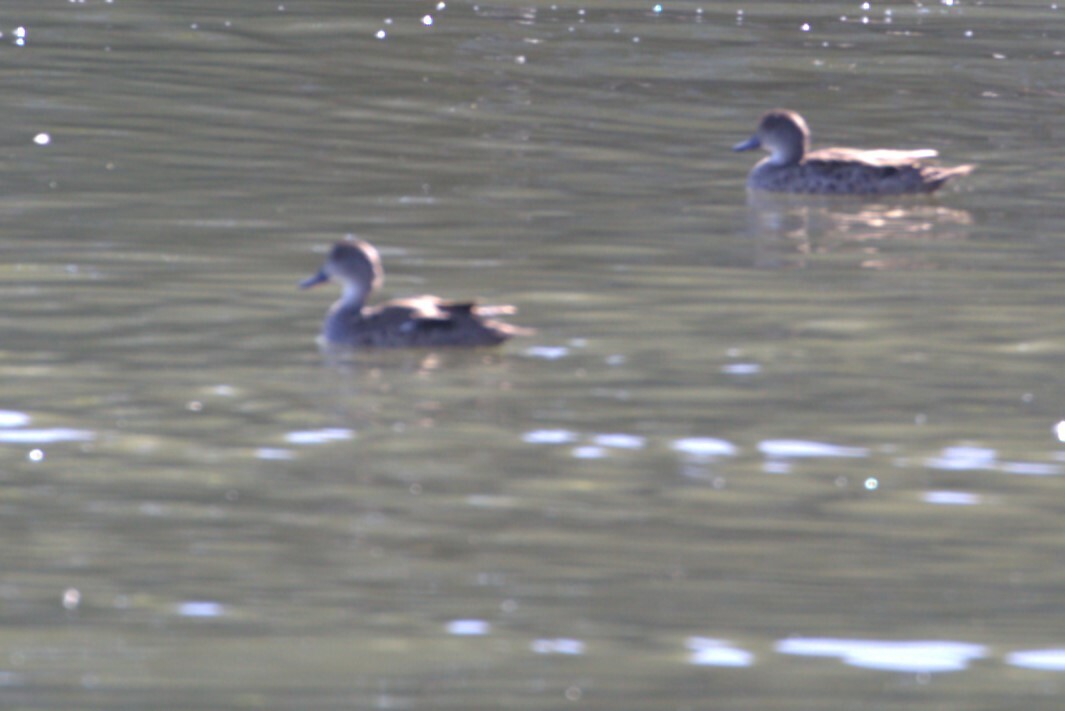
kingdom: Animalia
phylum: Chordata
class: Aves
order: Anseriformes
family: Anatidae
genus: Anas
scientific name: Anas gracilis
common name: Grey teal
